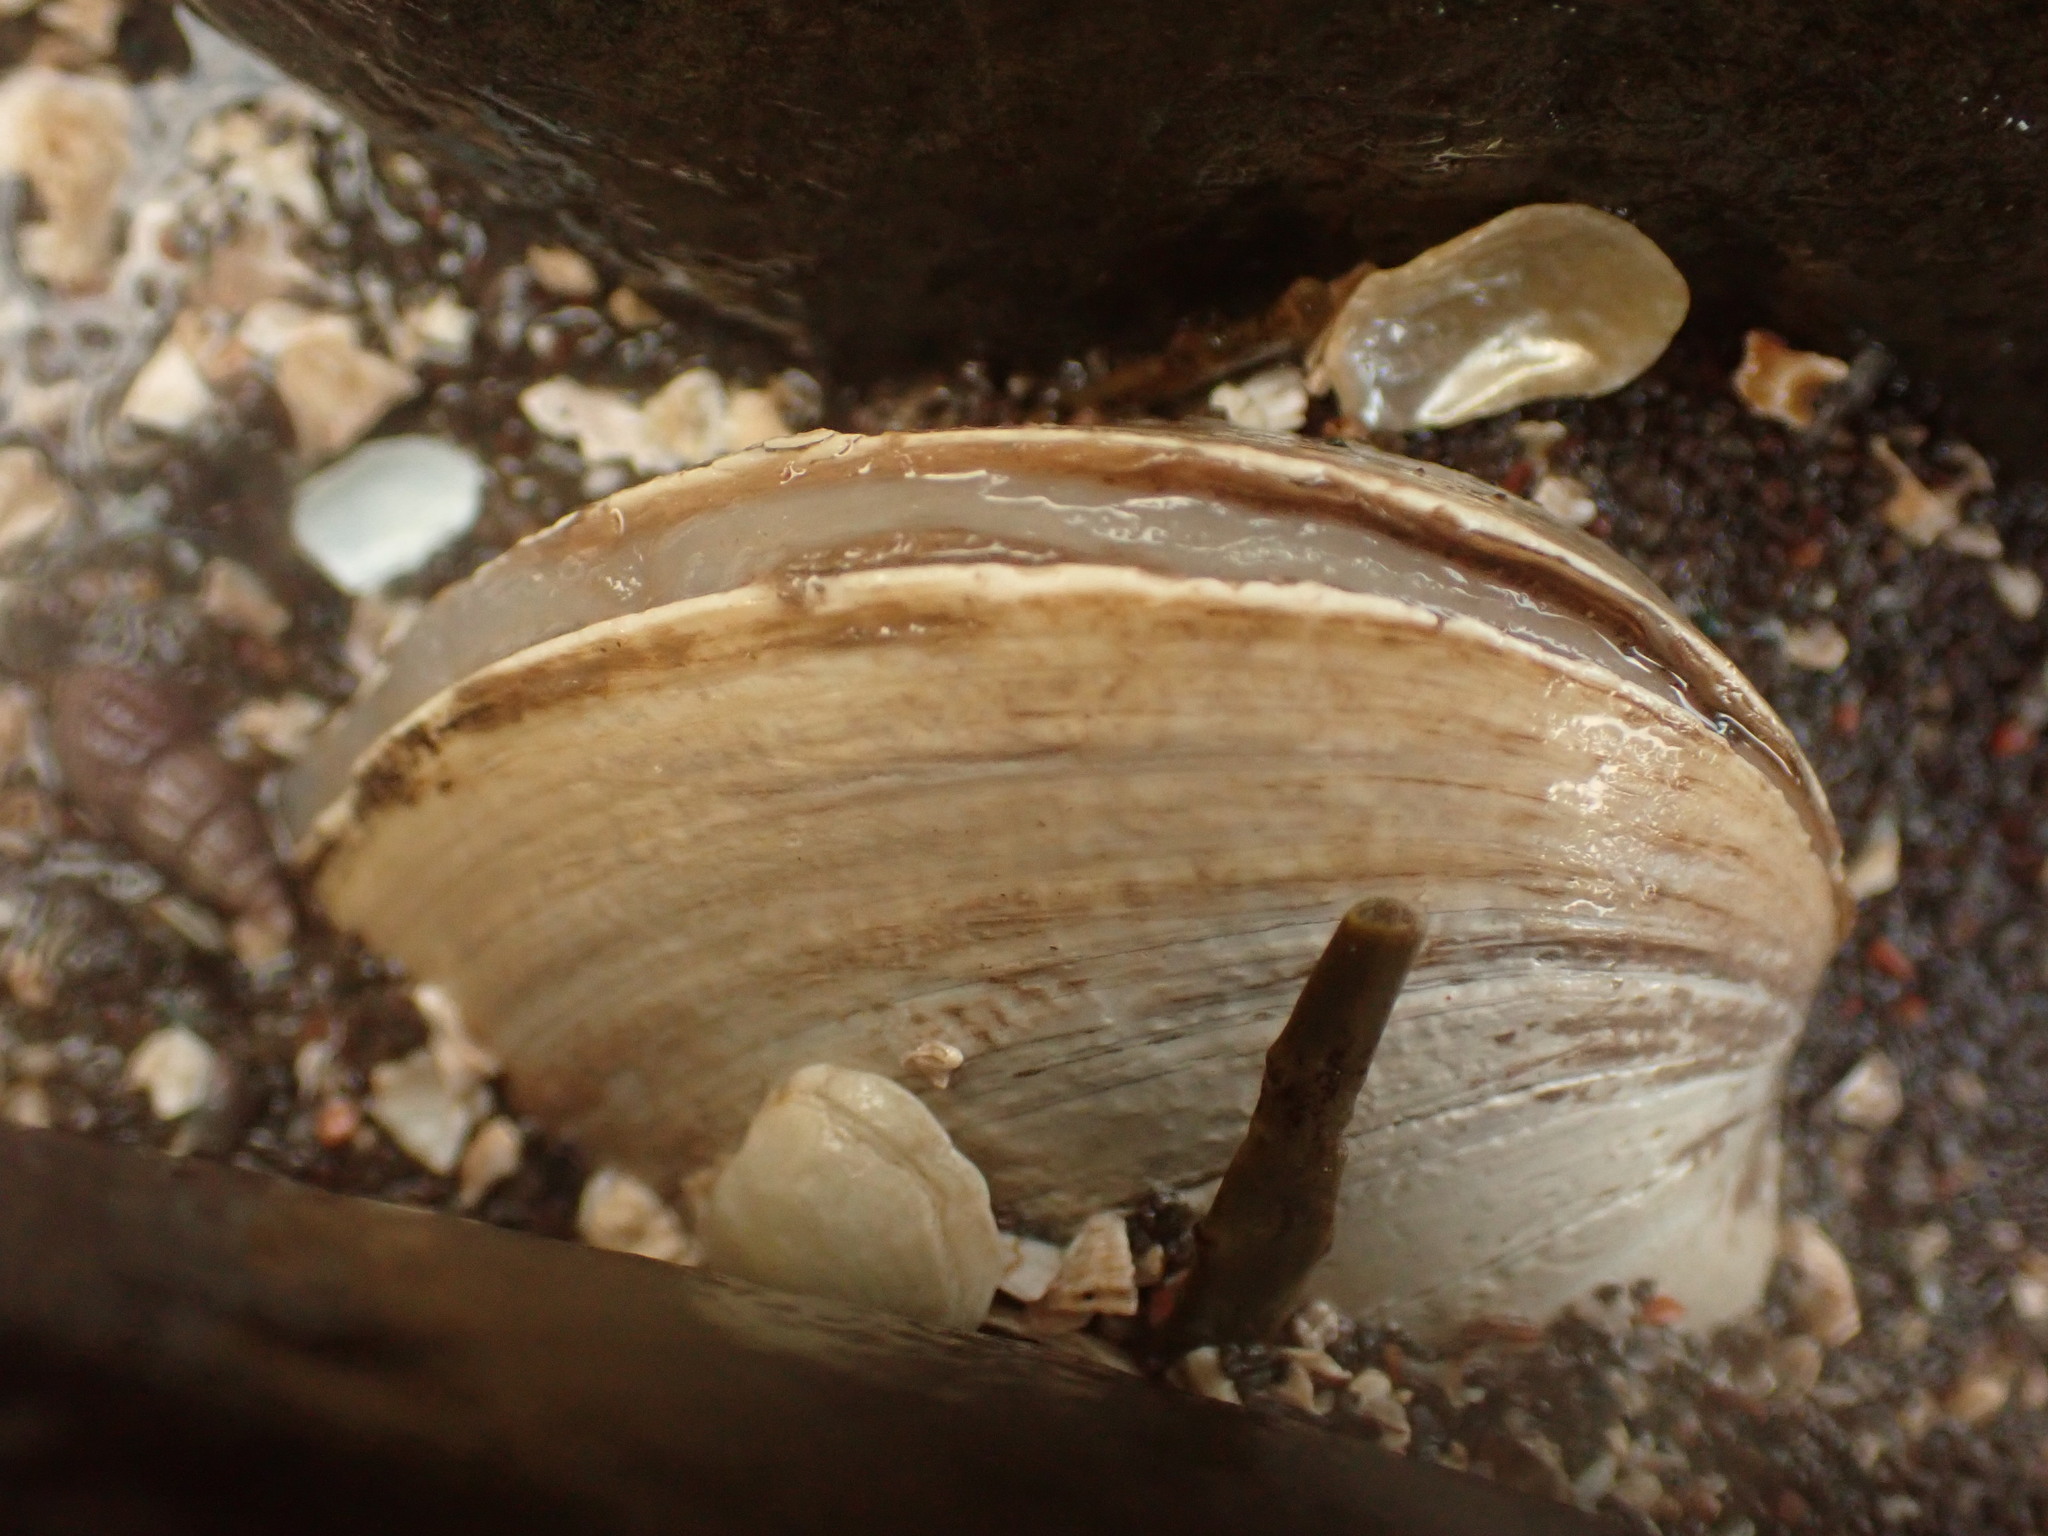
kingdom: Animalia
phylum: Mollusca
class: Bivalvia
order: Venerida
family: Mactridae
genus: Spisula
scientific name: Spisula solidissima
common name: Atlantic surf clam
